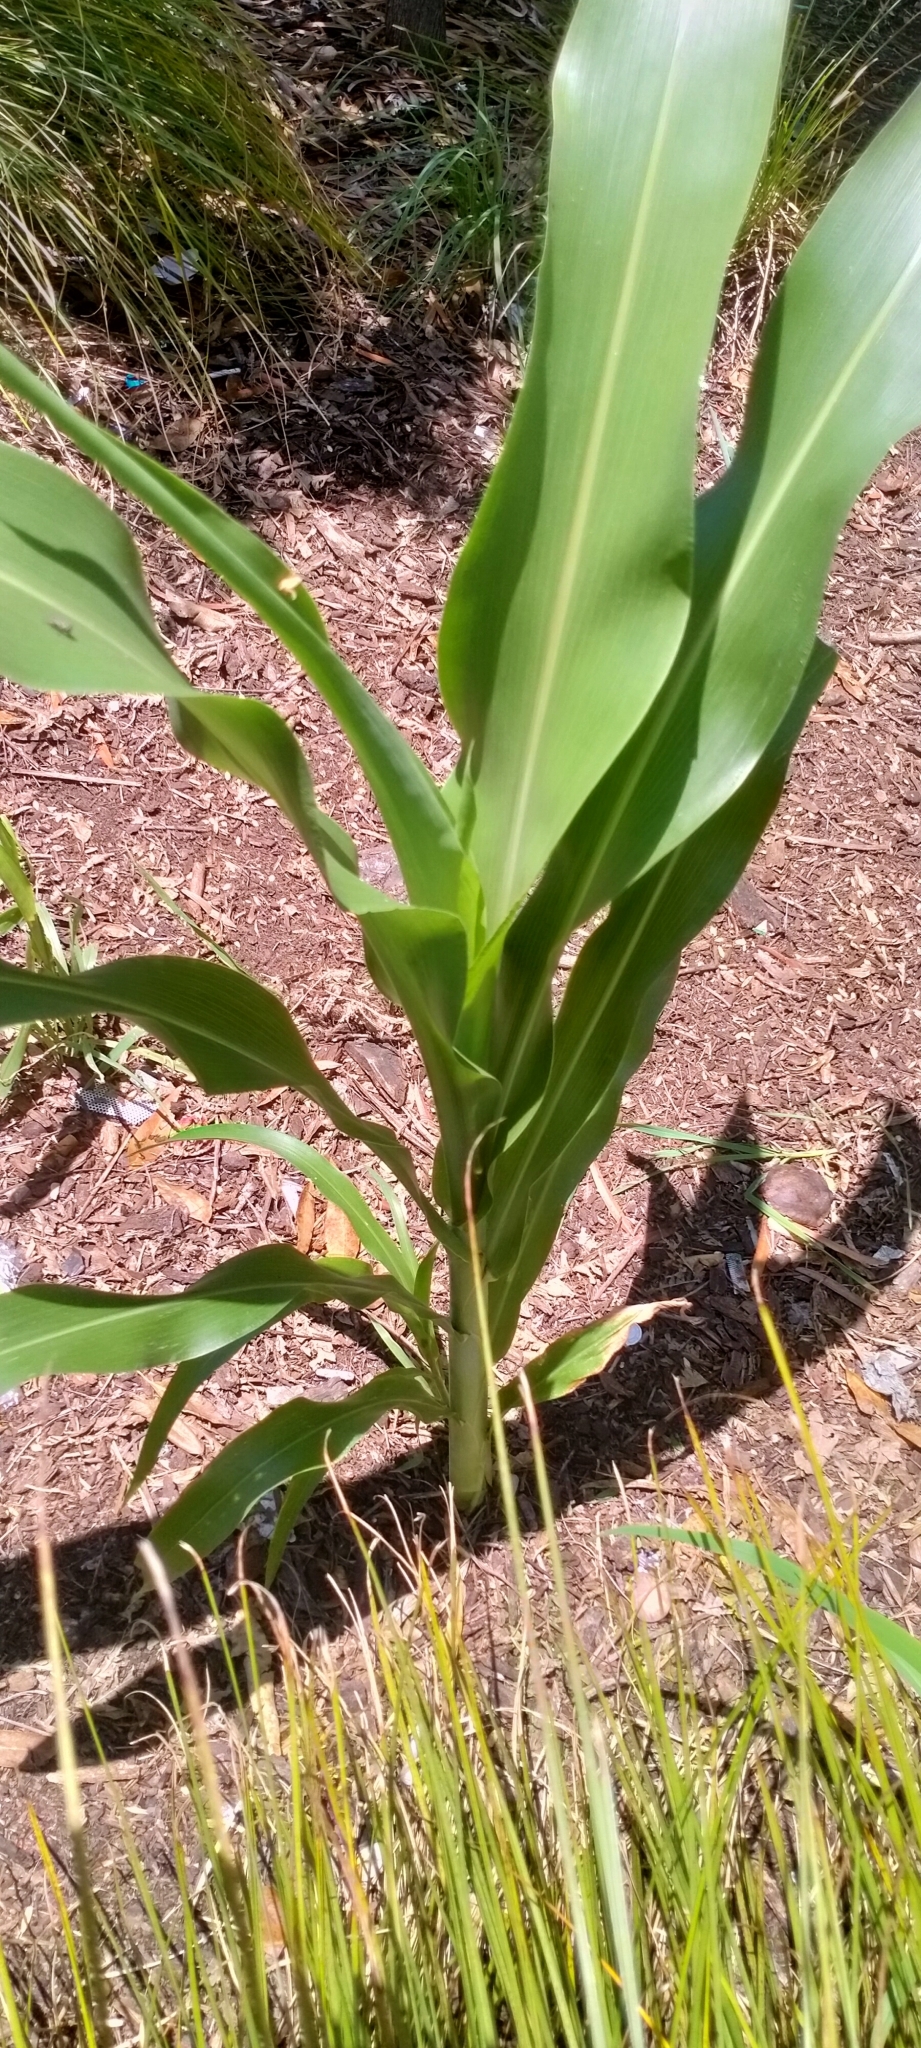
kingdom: Plantae
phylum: Tracheophyta
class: Liliopsida
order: Poales
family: Poaceae
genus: Zea
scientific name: Zea mays
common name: Maize
